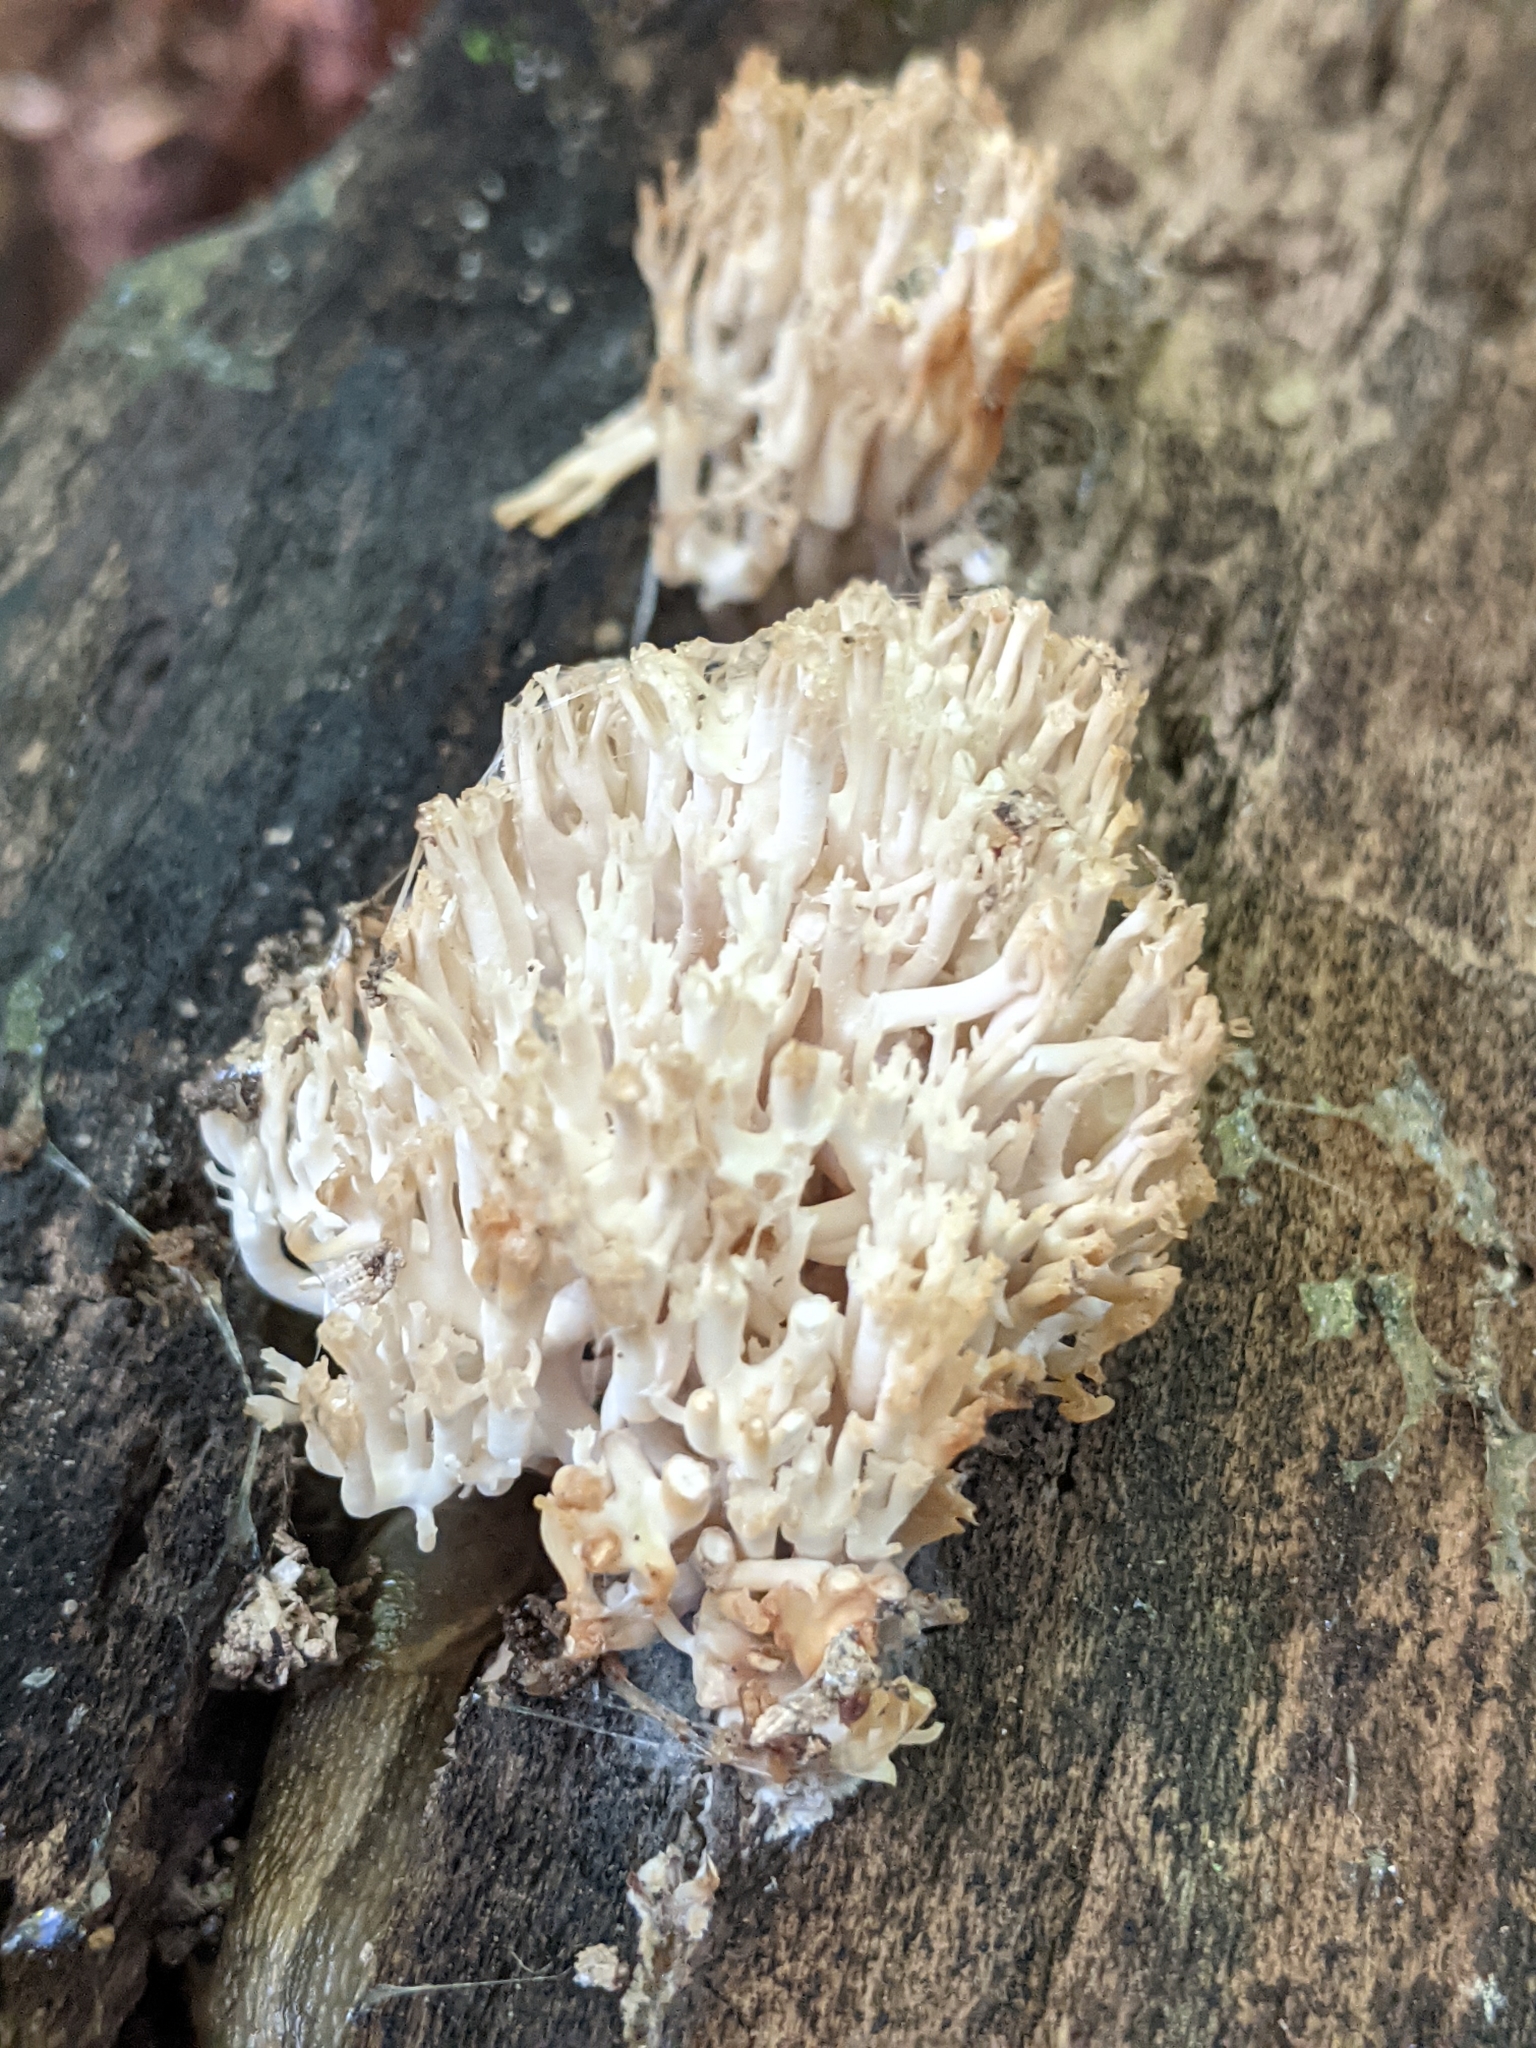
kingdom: Fungi
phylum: Basidiomycota
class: Agaricomycetes
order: Russulales
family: Auriscalpiaceae
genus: Artomyces
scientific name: Artomyces pyxidatus
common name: Crown-tipped coral fungus
